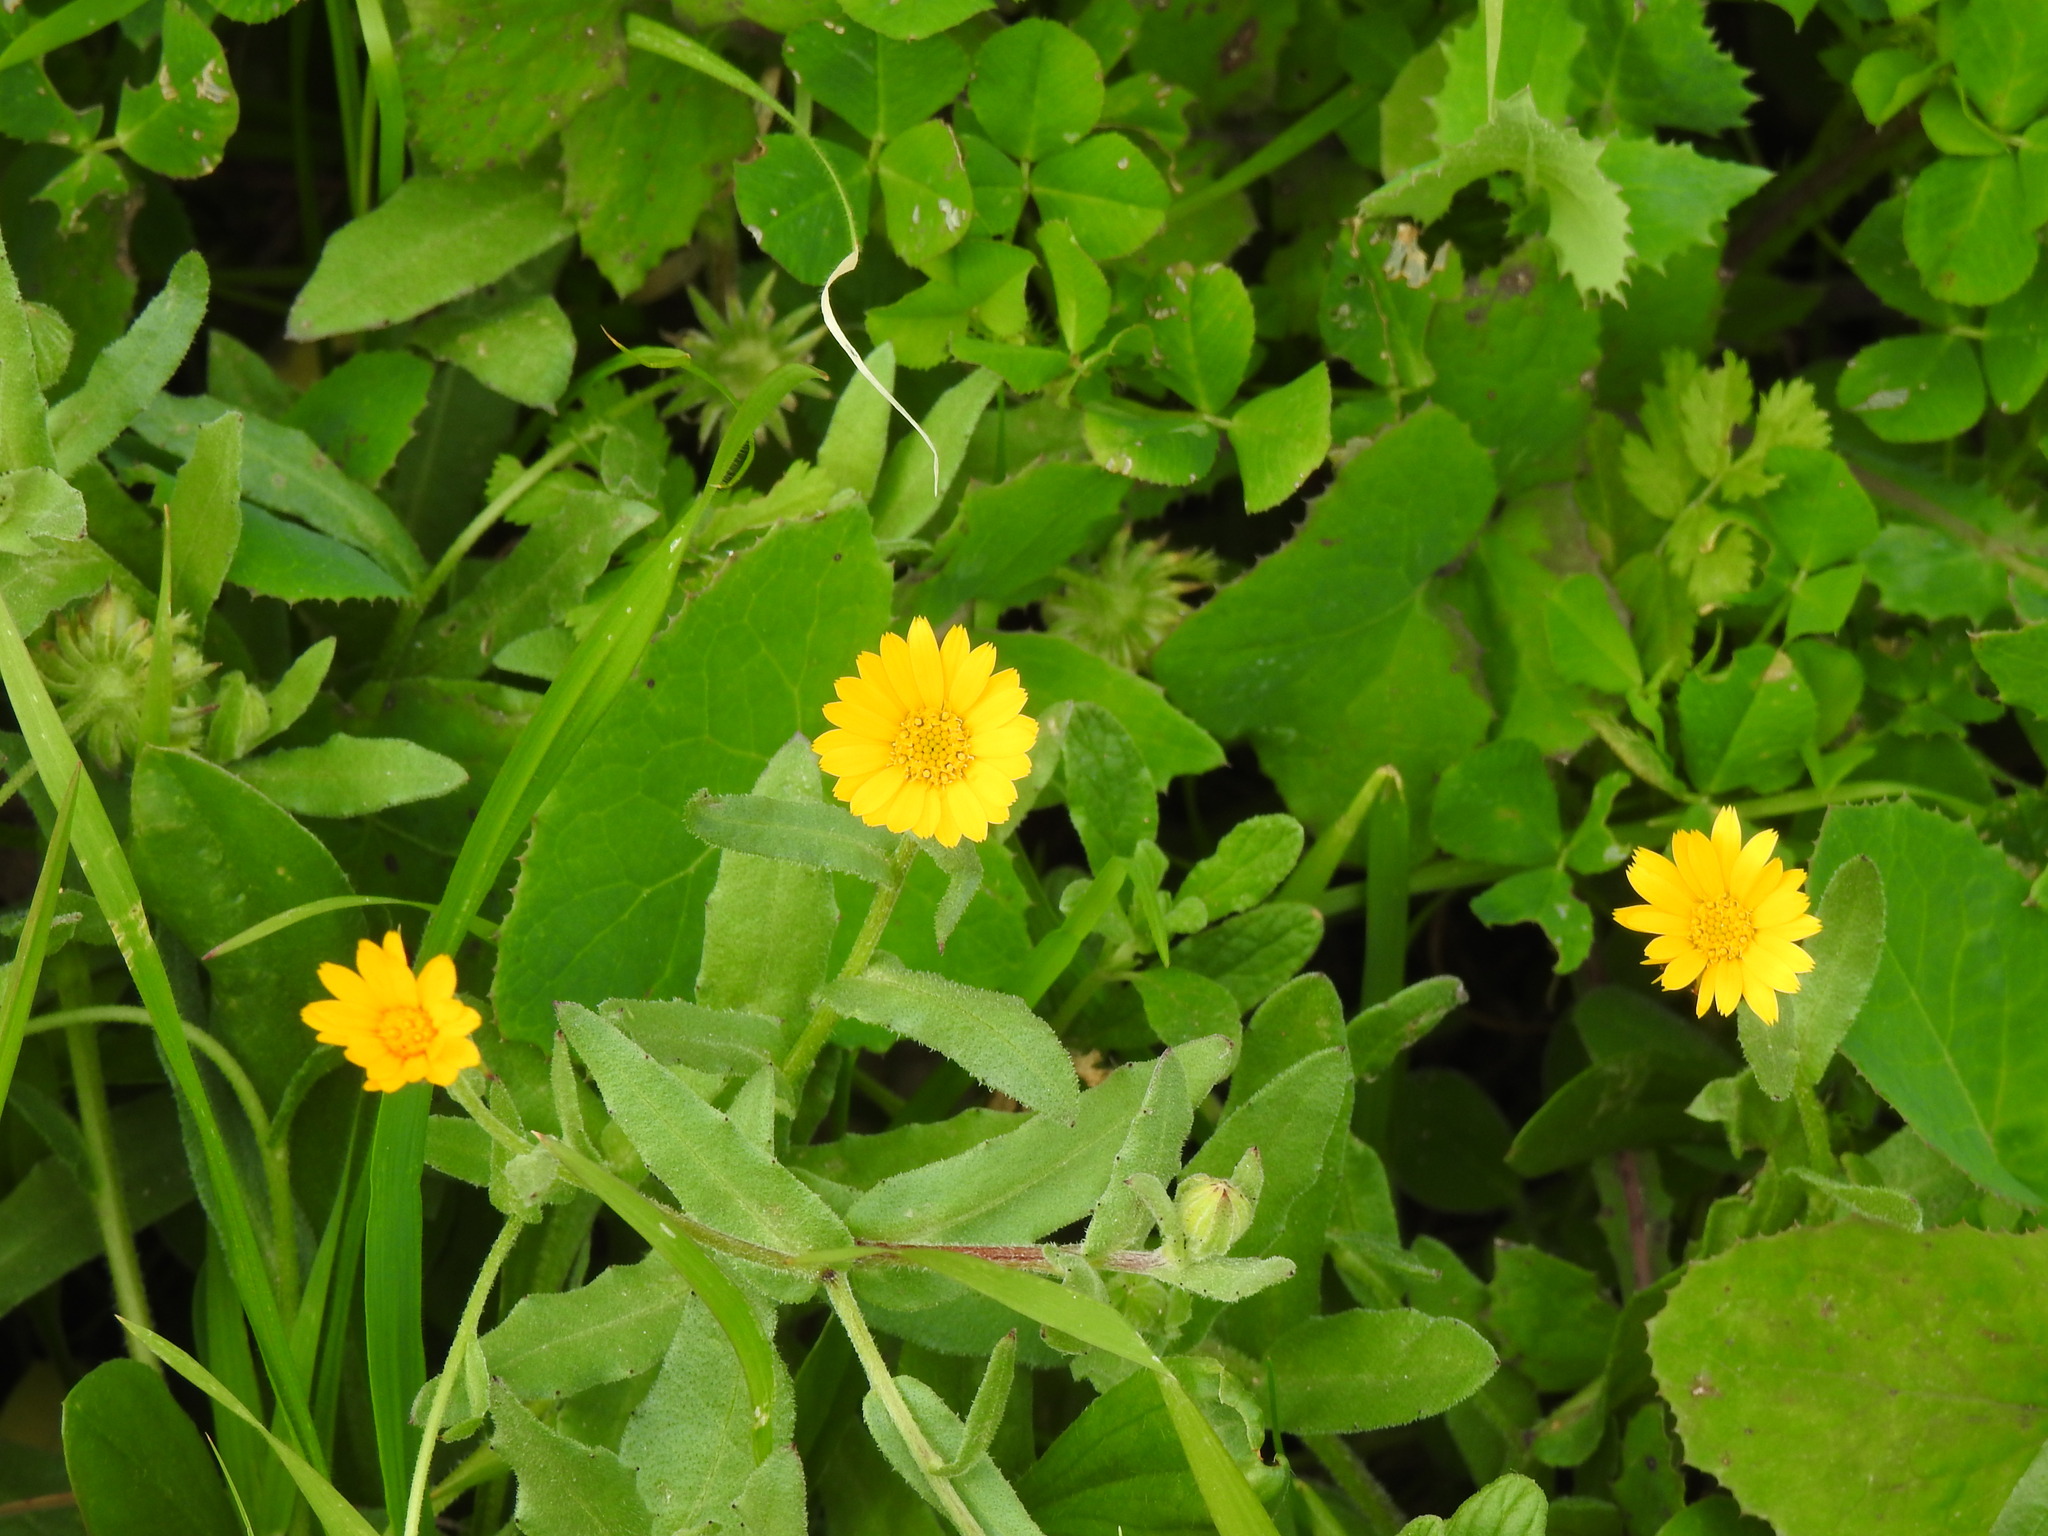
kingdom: Plantae
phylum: Tracheophyta
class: Magnoliopsida
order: Asterales
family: Asteraceae
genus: Calendula
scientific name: Calendula arvensis
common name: Field marigold
